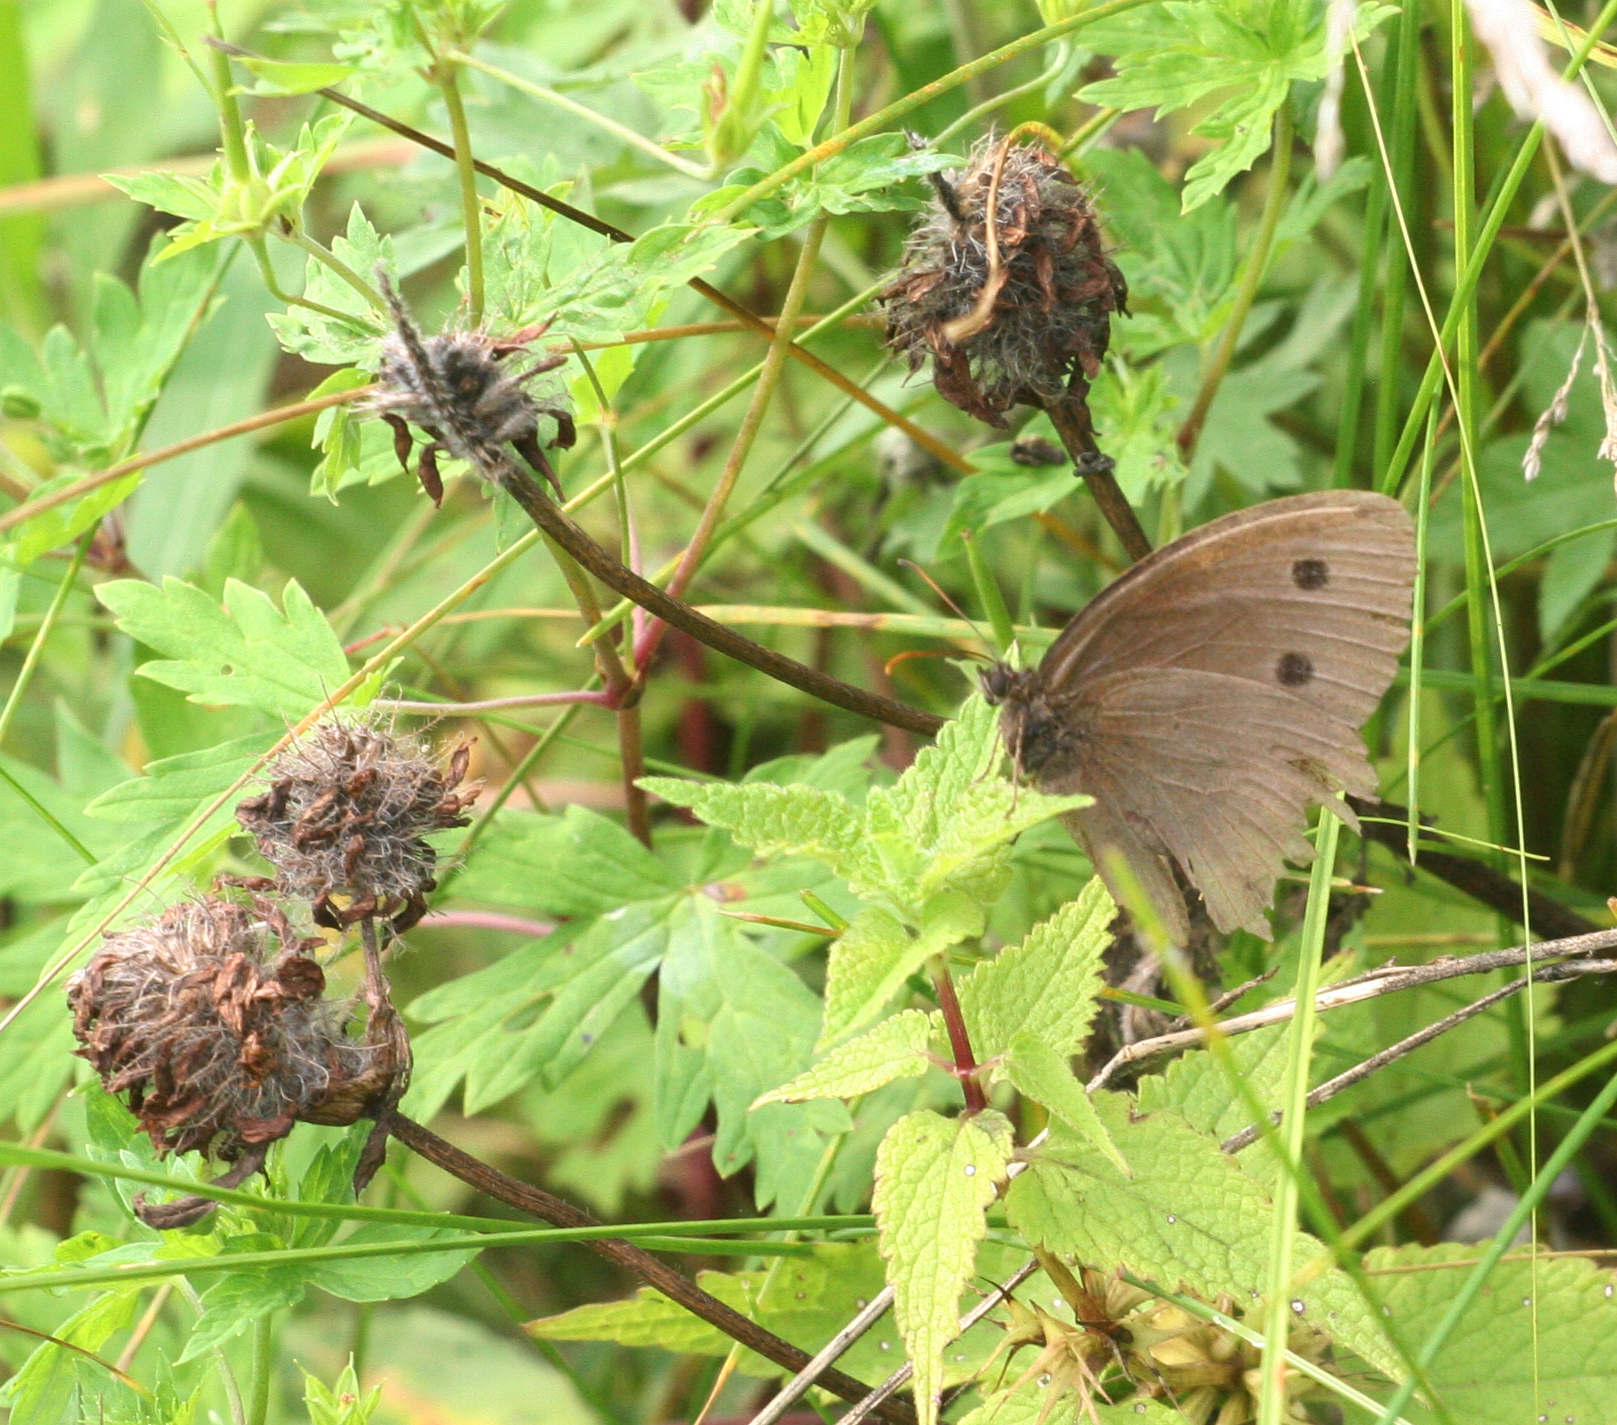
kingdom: Animalia
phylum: Arthropoda
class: Insecta
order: Lepidoptera
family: Nymphalidae
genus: Minois
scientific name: Minois dryas
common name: Dryad
